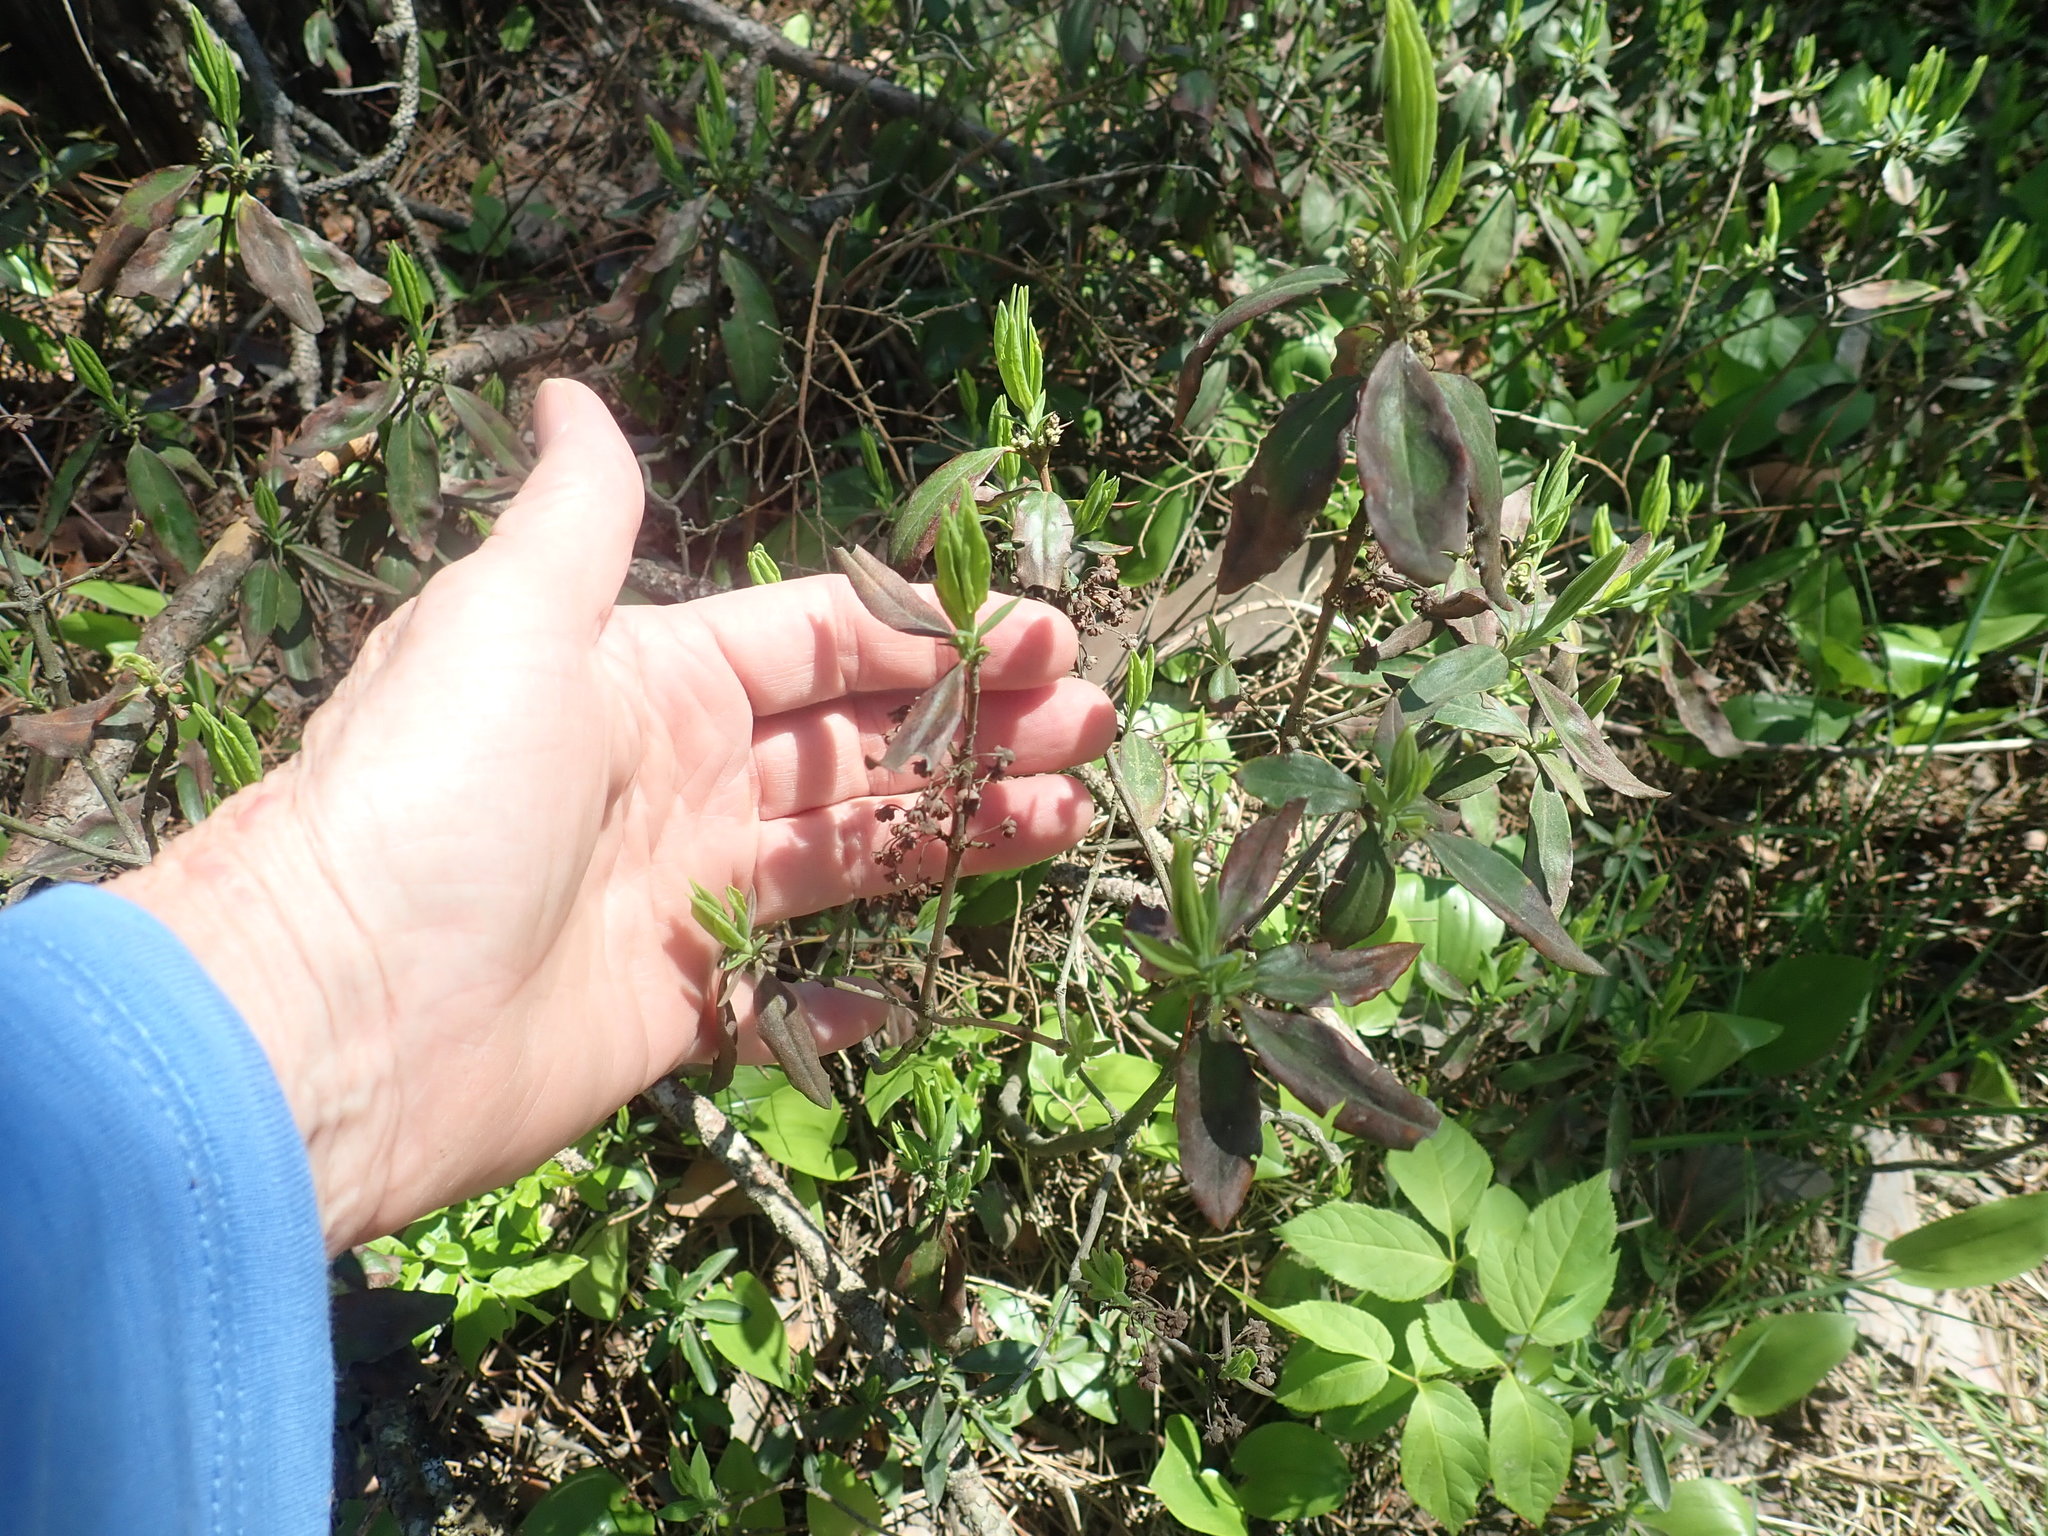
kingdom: Plantae
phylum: Tracheophyta
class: Magnoliopsida
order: Ericales
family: Ericaceae
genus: Kalmia
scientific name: Kalmia angustifolia
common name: Sheep-laurel
